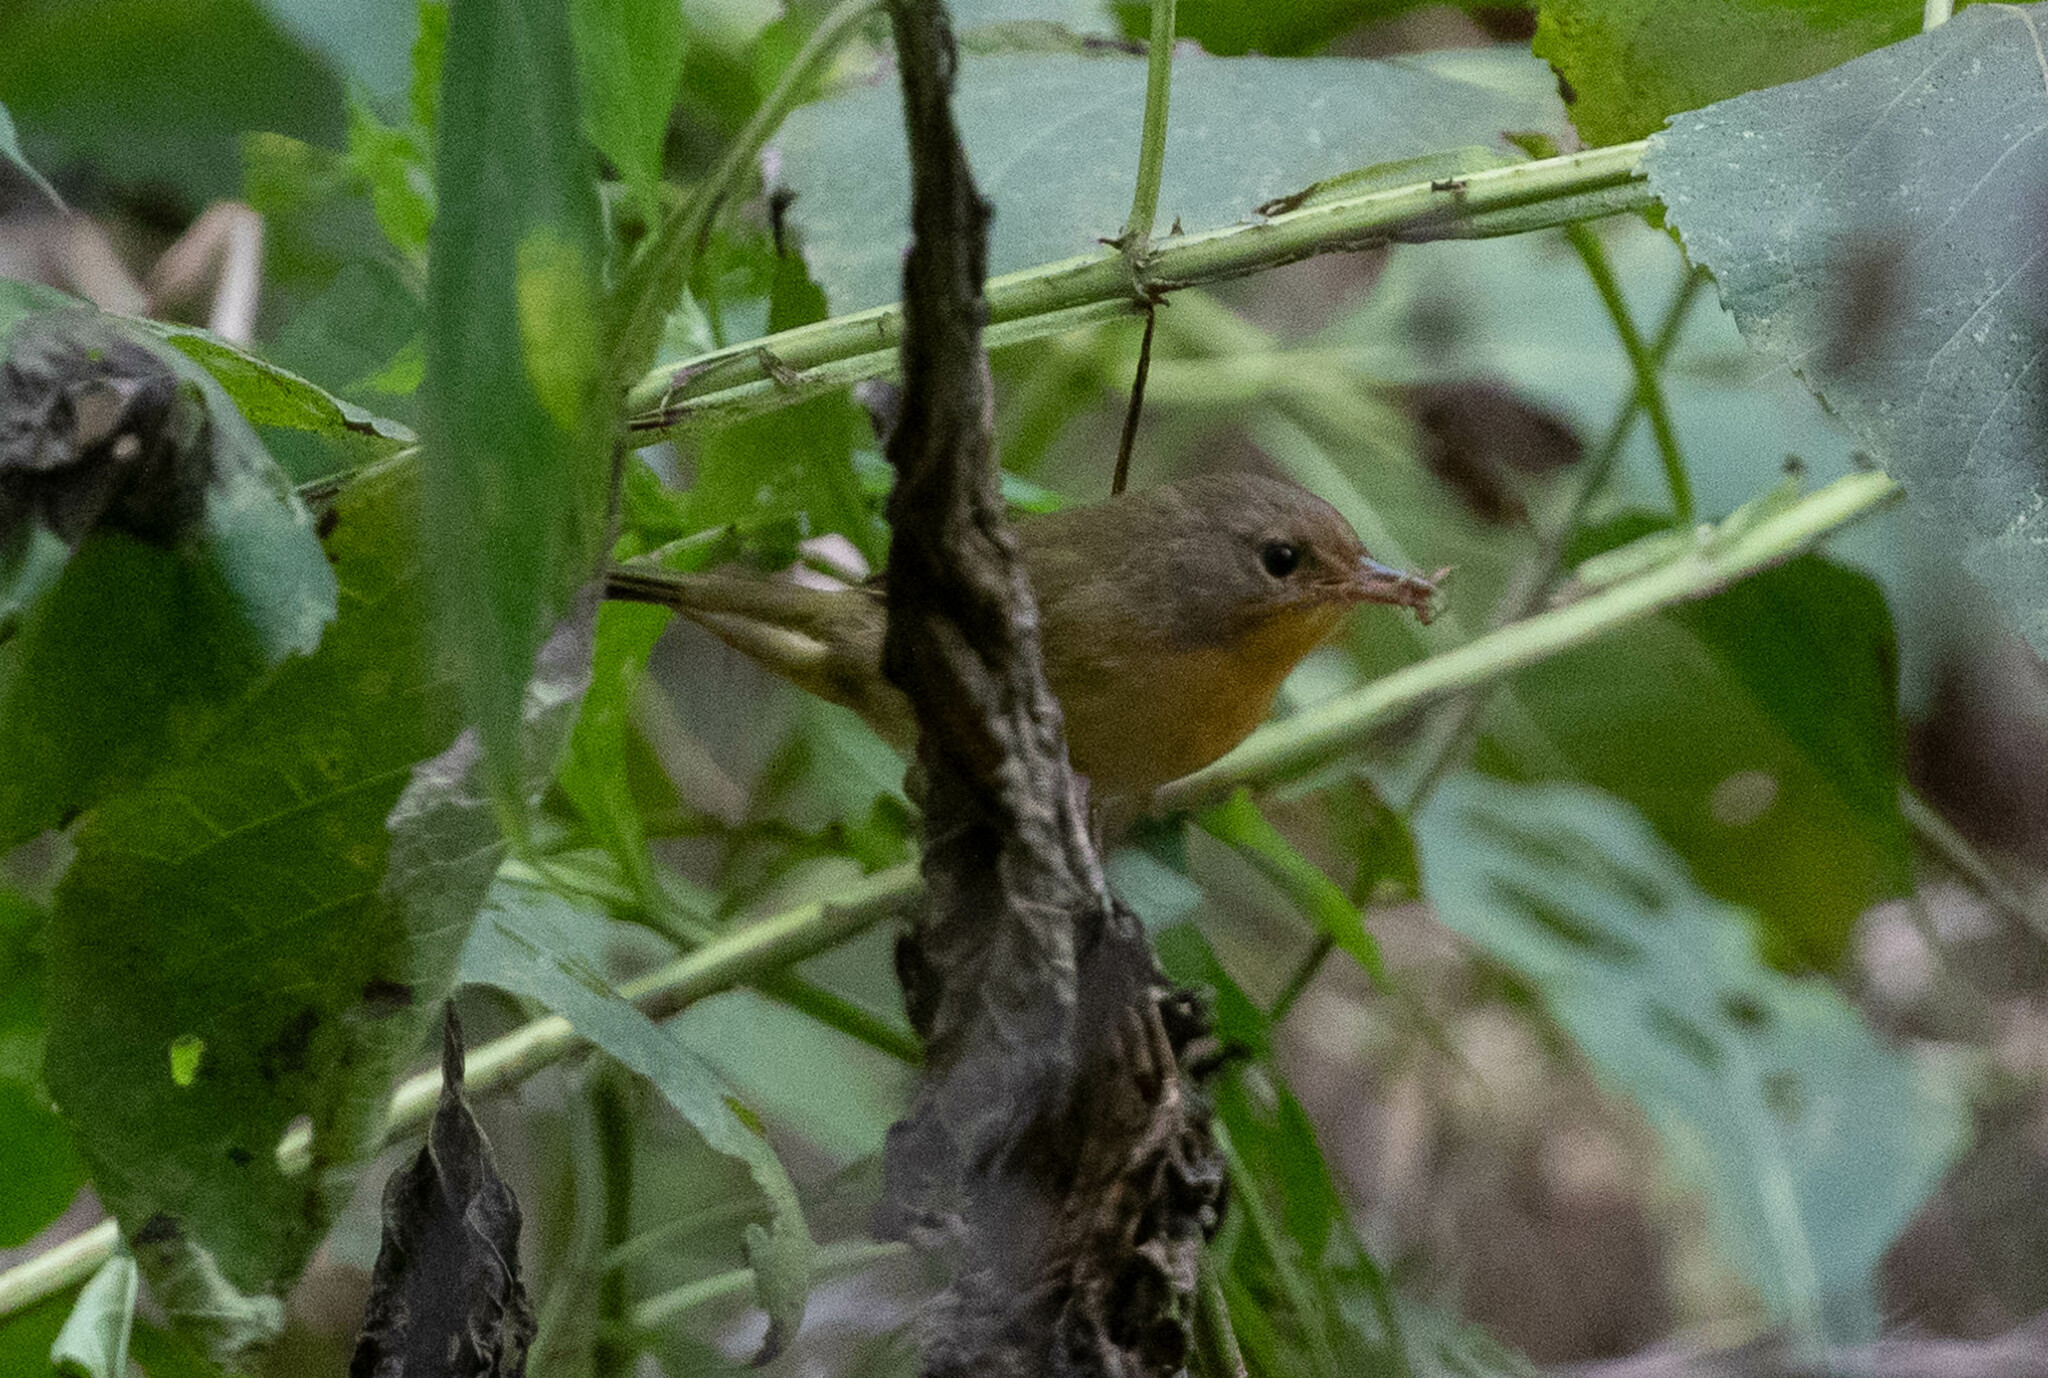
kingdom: Animalia
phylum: Chordata
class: Aves
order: Passeriformes
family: Parulidae
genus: Geothlypis
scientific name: Geothlypis trichas
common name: Common yellowthroat
